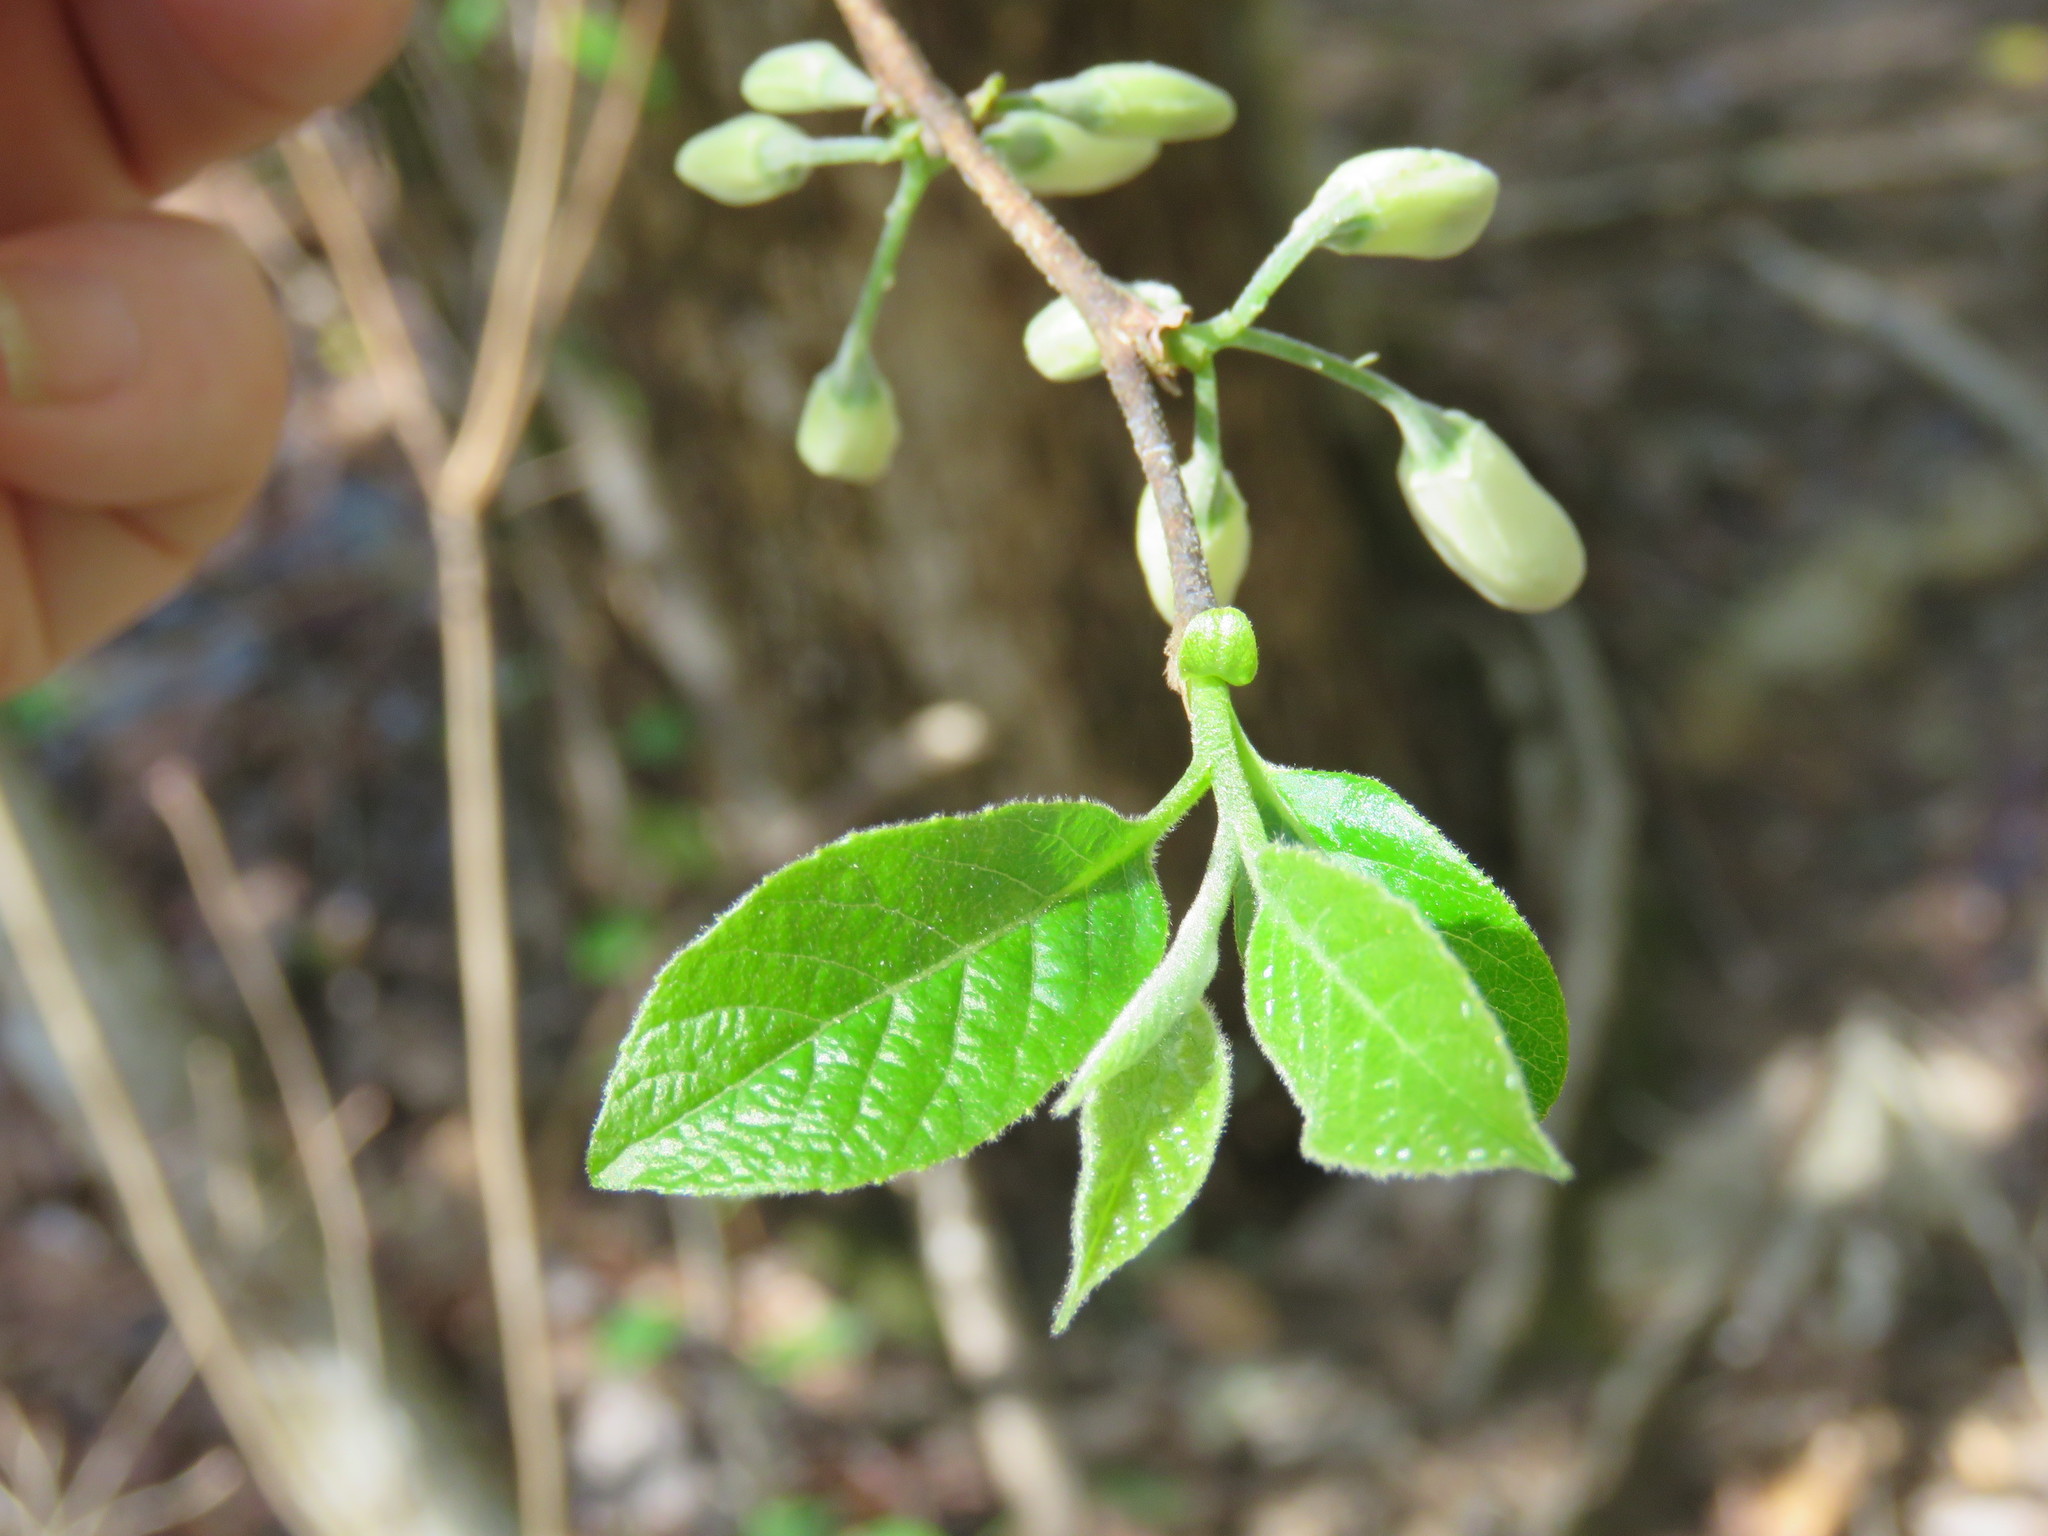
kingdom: Plantae
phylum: Tracheophyta
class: Magnoliopsida
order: Ericales
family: Styracaceae
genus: Halesia
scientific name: Halesia diptera
